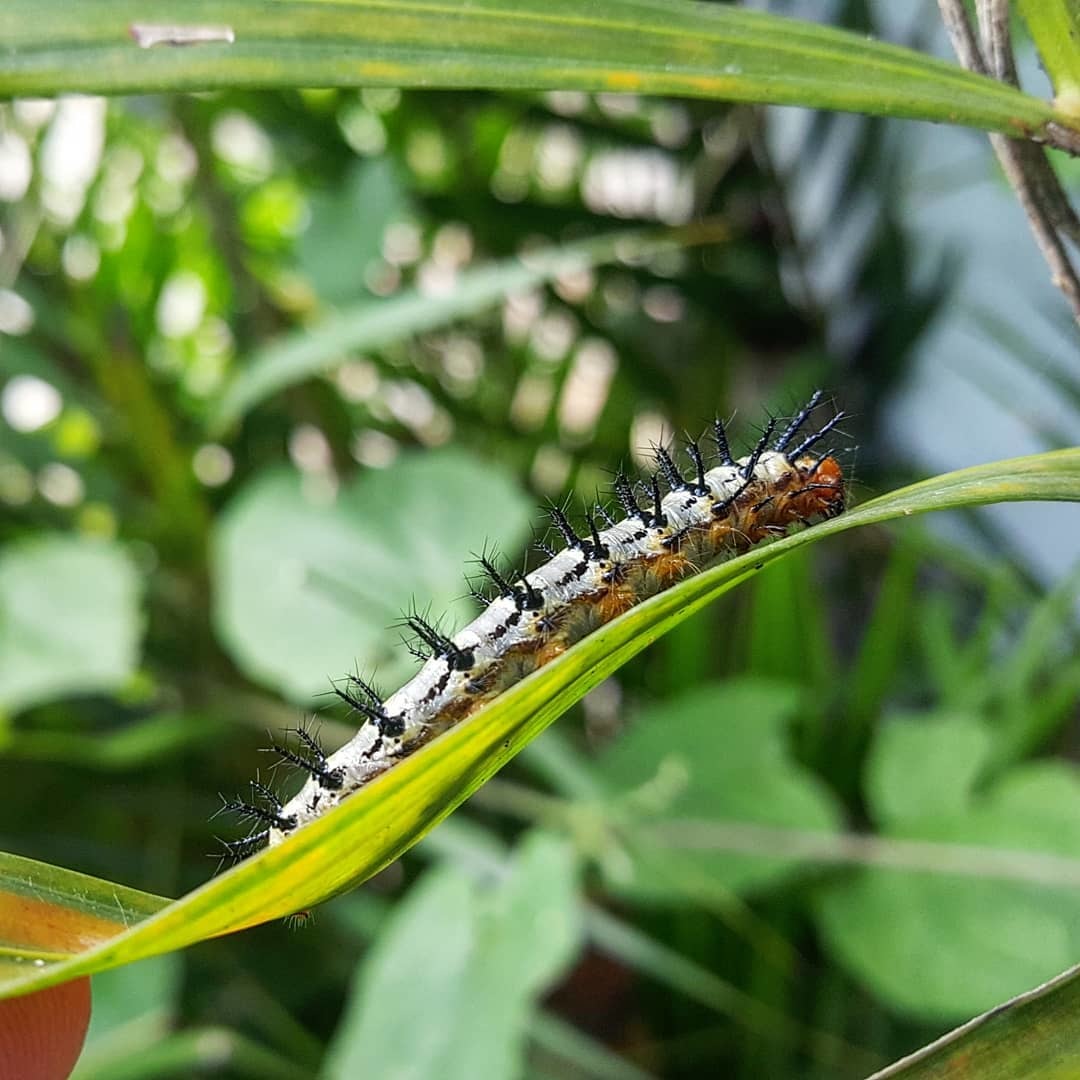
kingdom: Animalia
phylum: Arthropoda
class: Insecta
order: Lepidoptera
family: Nymphalidae
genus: Chlosyne
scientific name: Chlosyne janais
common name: Crimson patch
